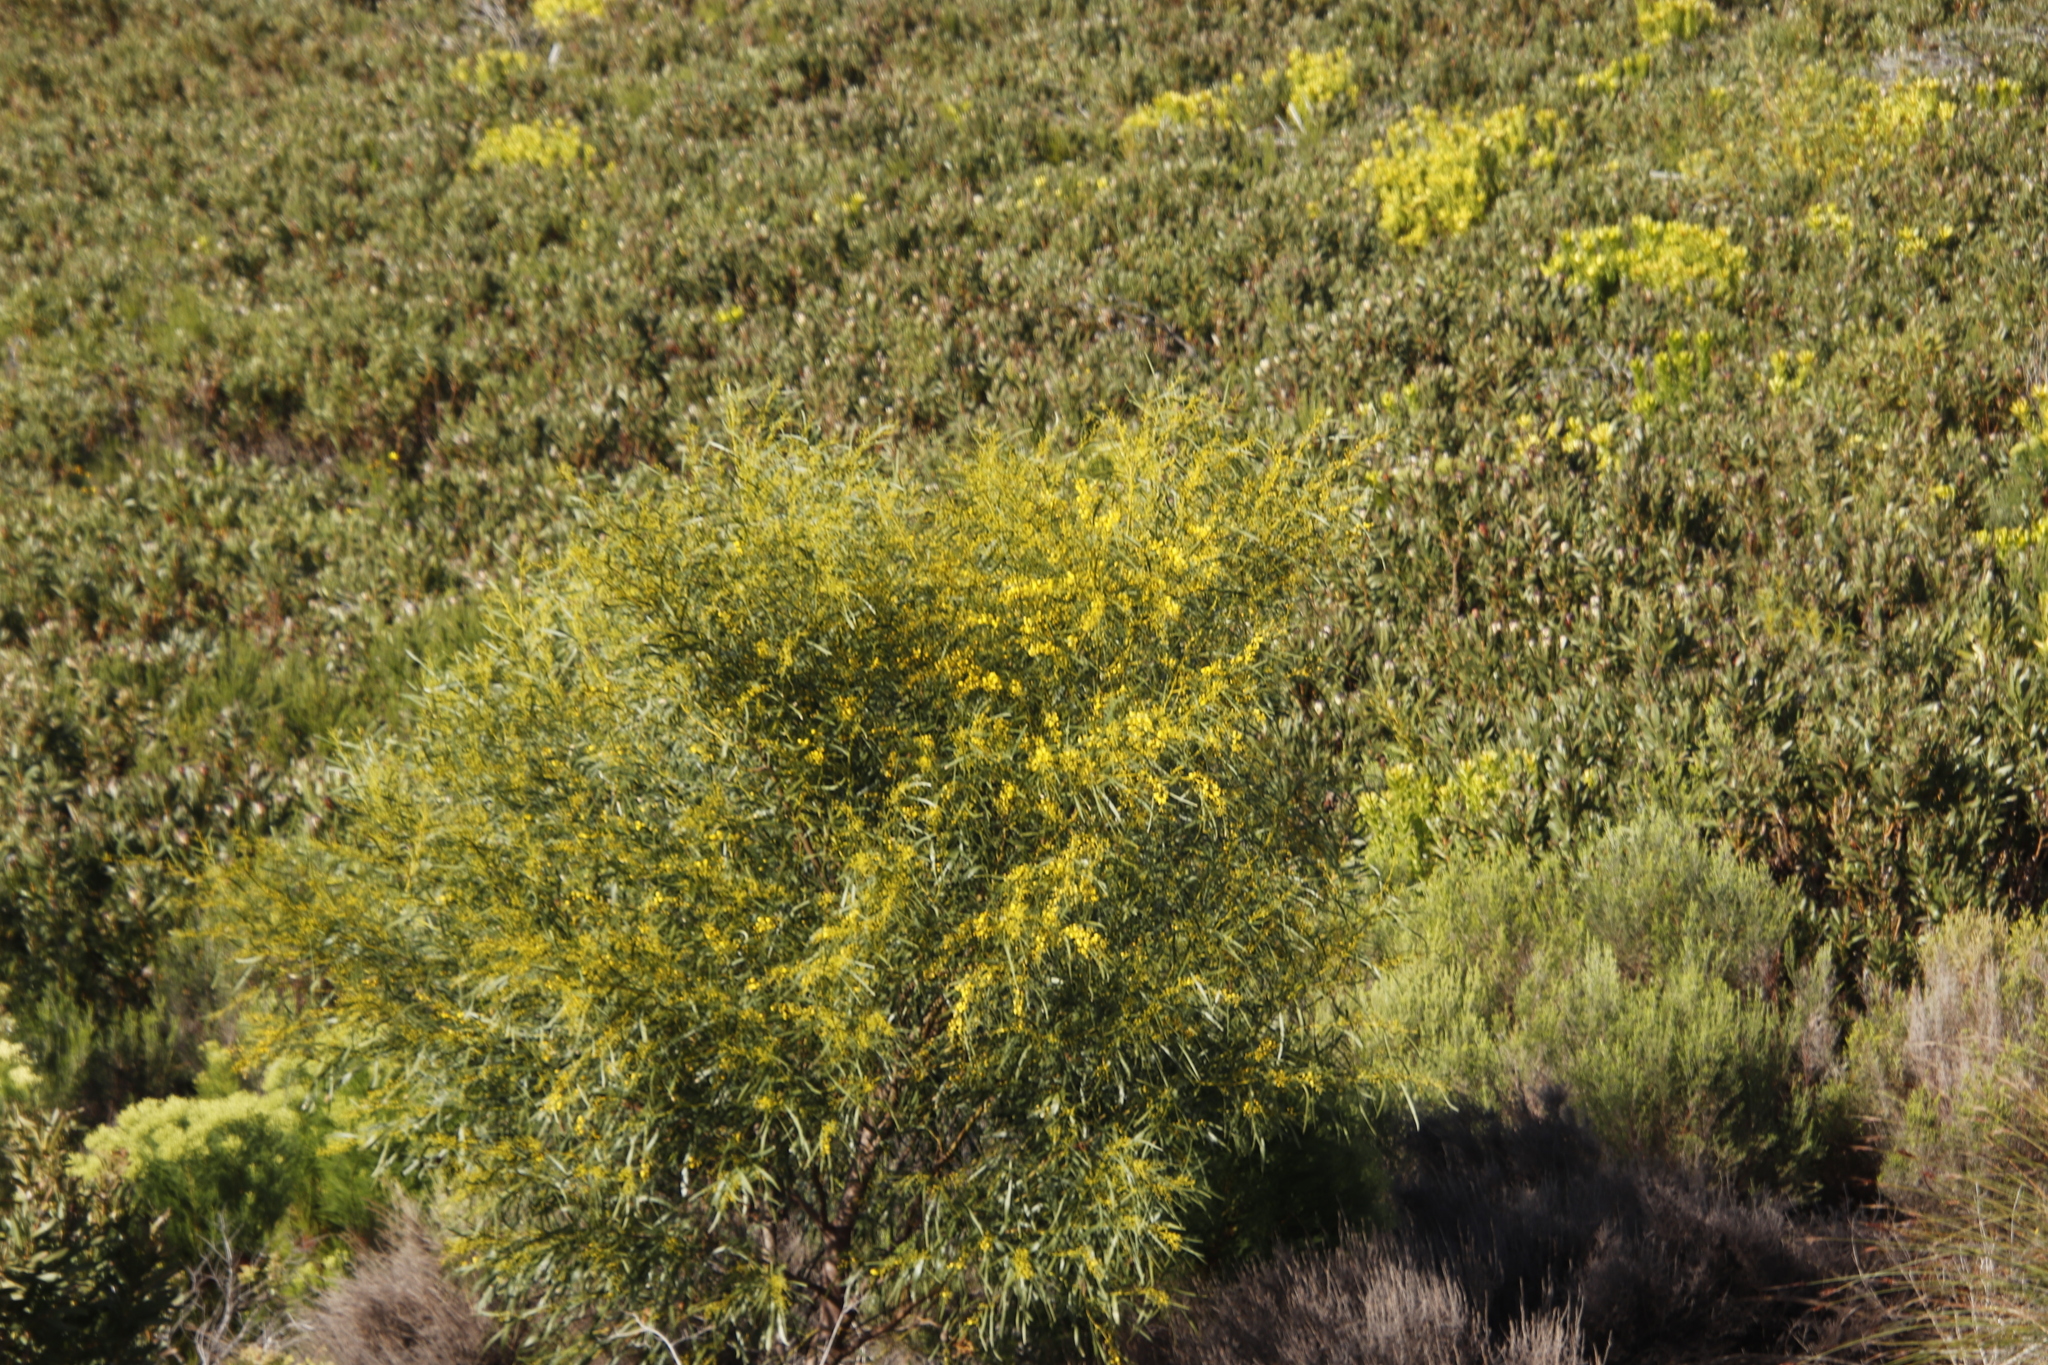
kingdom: Plantae
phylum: Tracheophyta
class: Magnoliopsida
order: Fabales
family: Fabaceae
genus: Acacia
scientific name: Acacia saligna
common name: Orange wattle
